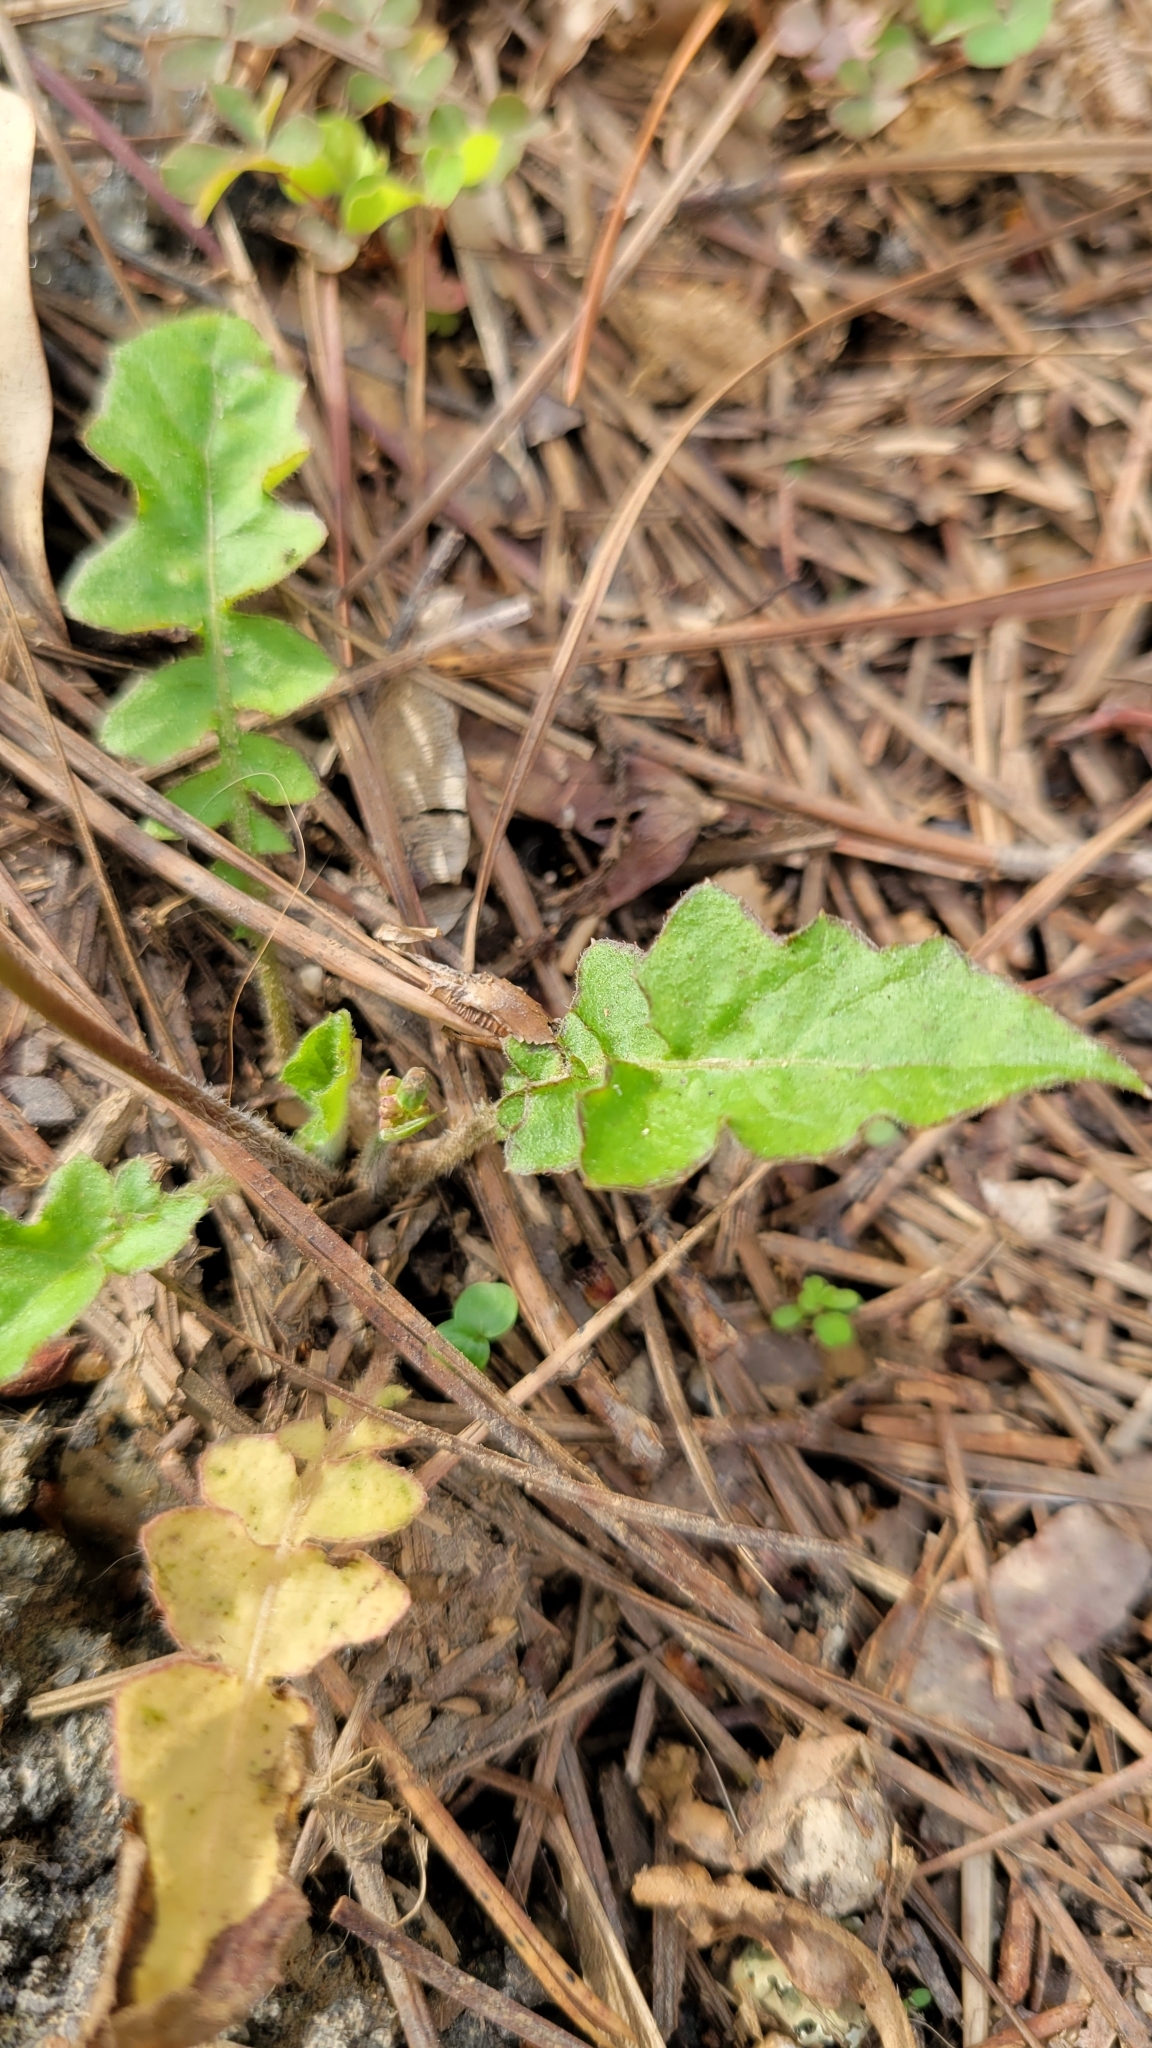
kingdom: Plantae
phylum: Tracheophyta
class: Magnoliopsida
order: Asterales
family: Asteraceae
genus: Youngia
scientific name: Youngia japonica
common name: Oriental false hawksbeard
